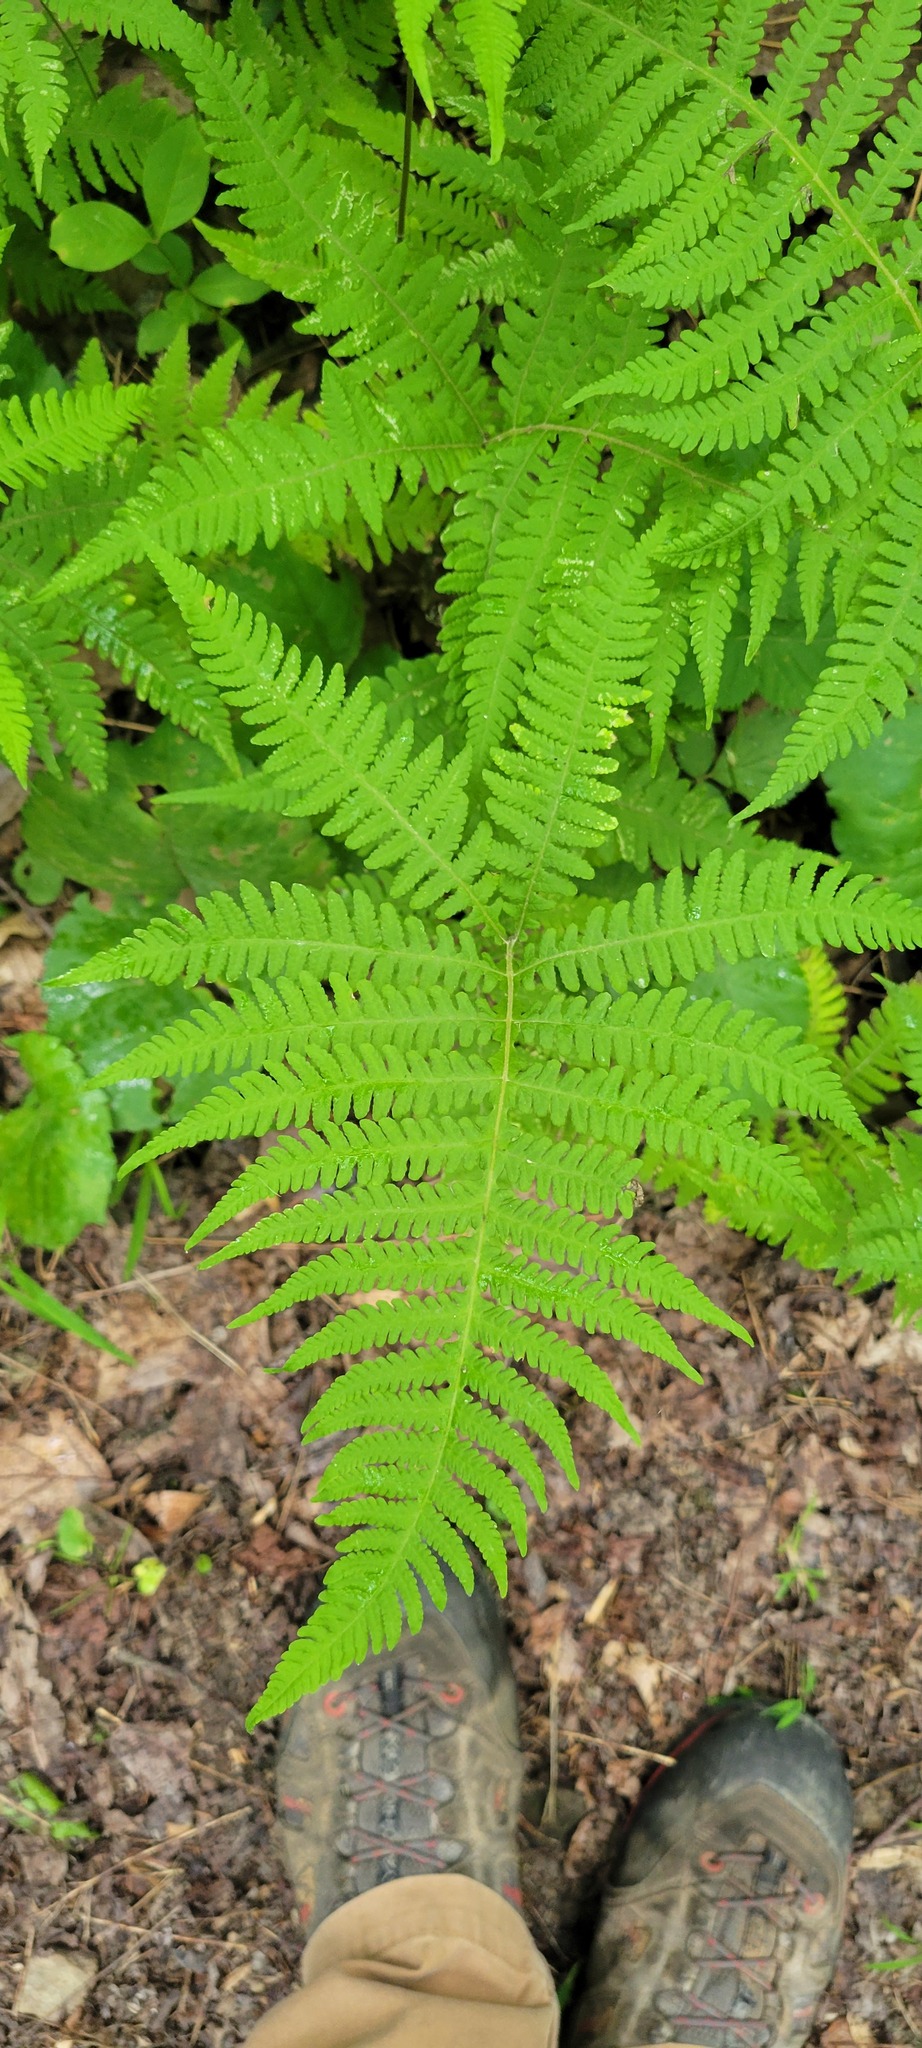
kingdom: Plantae
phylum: Tracheophyta
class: Polypodiopsida
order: Polypodiales
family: Thelypteridaceae
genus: Phegopteris
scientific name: Phegopteris hexagonoptera
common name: Broad beech fern
